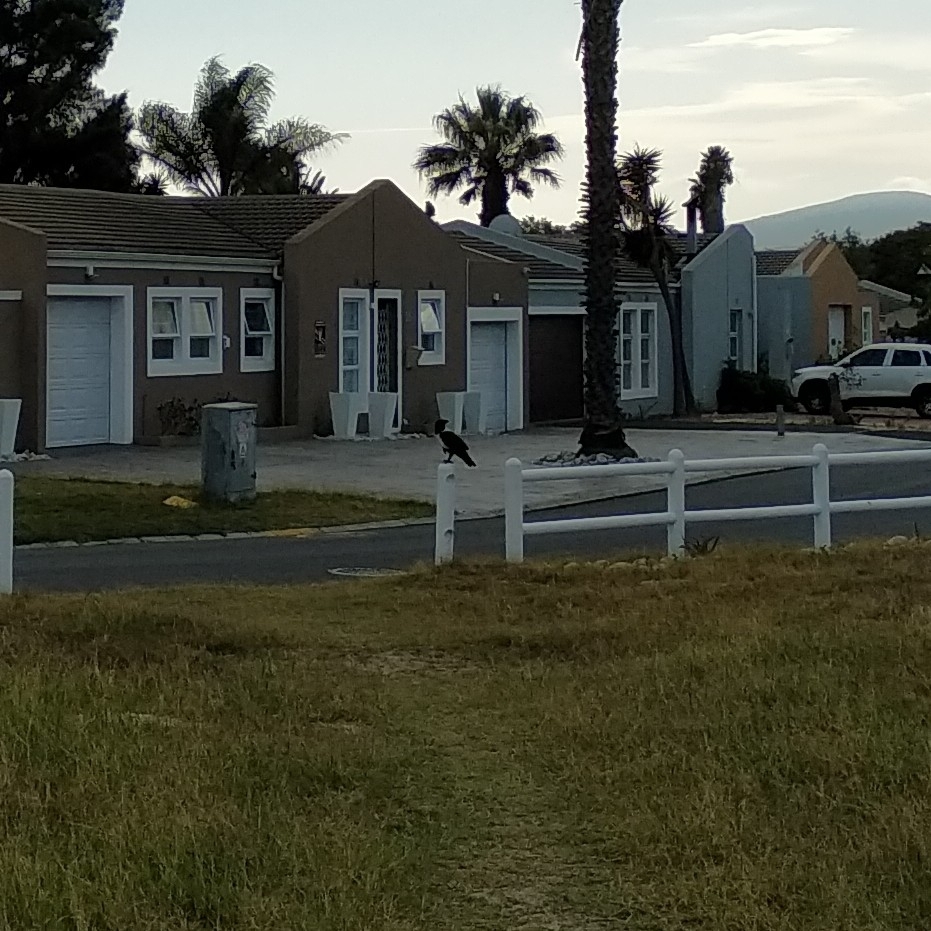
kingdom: Animalia
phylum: Chordata
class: Aves
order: Passeriformes
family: Corvidae
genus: Corvus
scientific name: Corvus albus
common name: Pied crow
